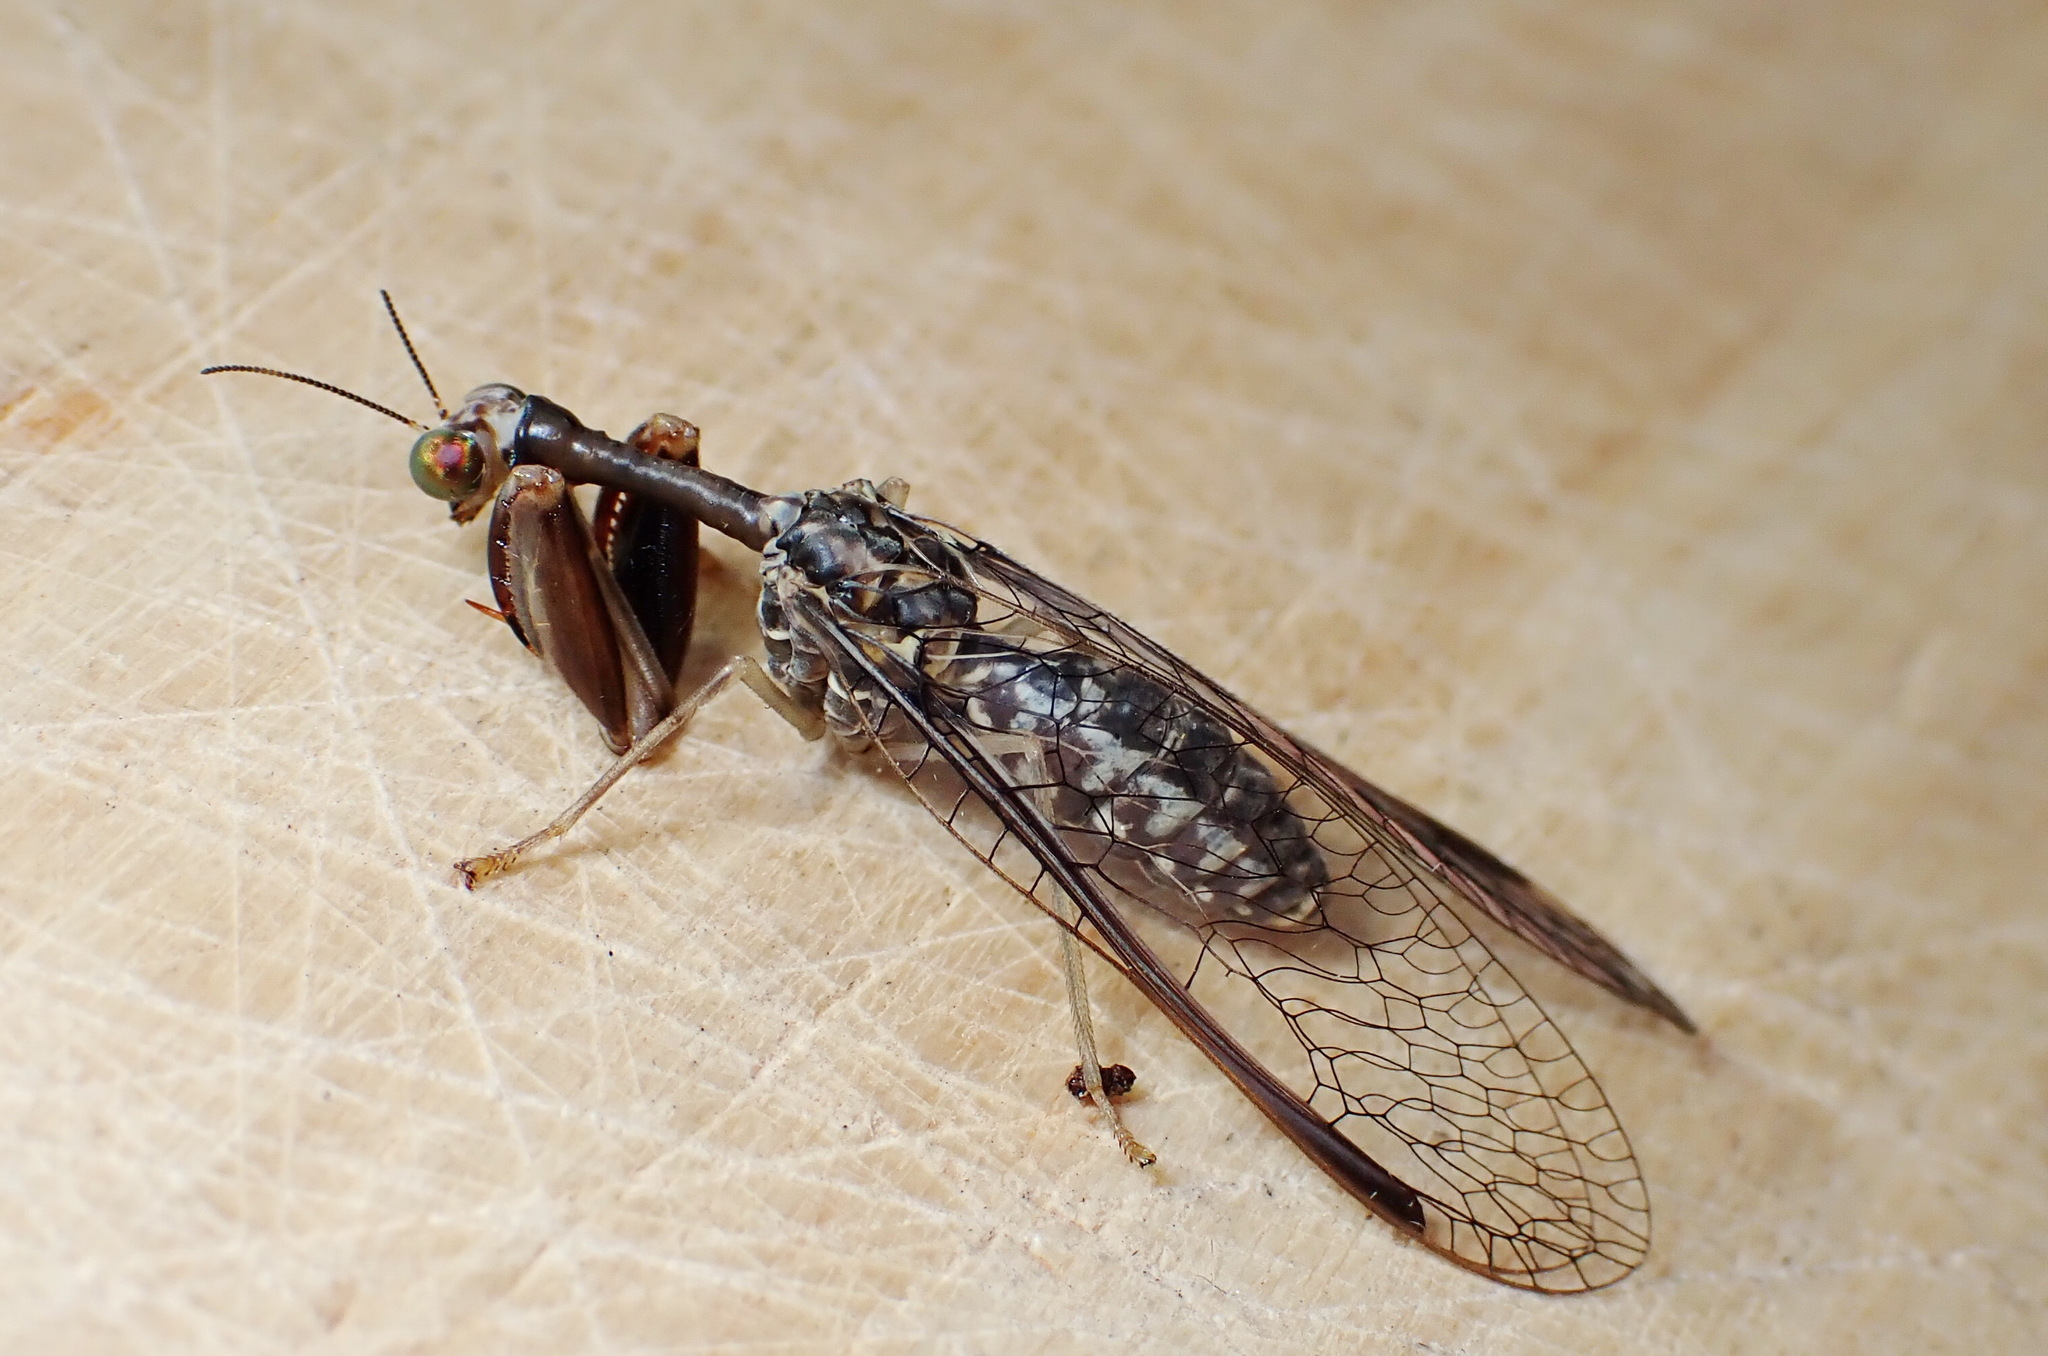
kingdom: Animalia
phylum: Arthropoda
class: Insecta
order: Neuroptera
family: Mantispidae
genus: Dicromantispa
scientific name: Dicromantispa sayi
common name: Say's mantidfly
